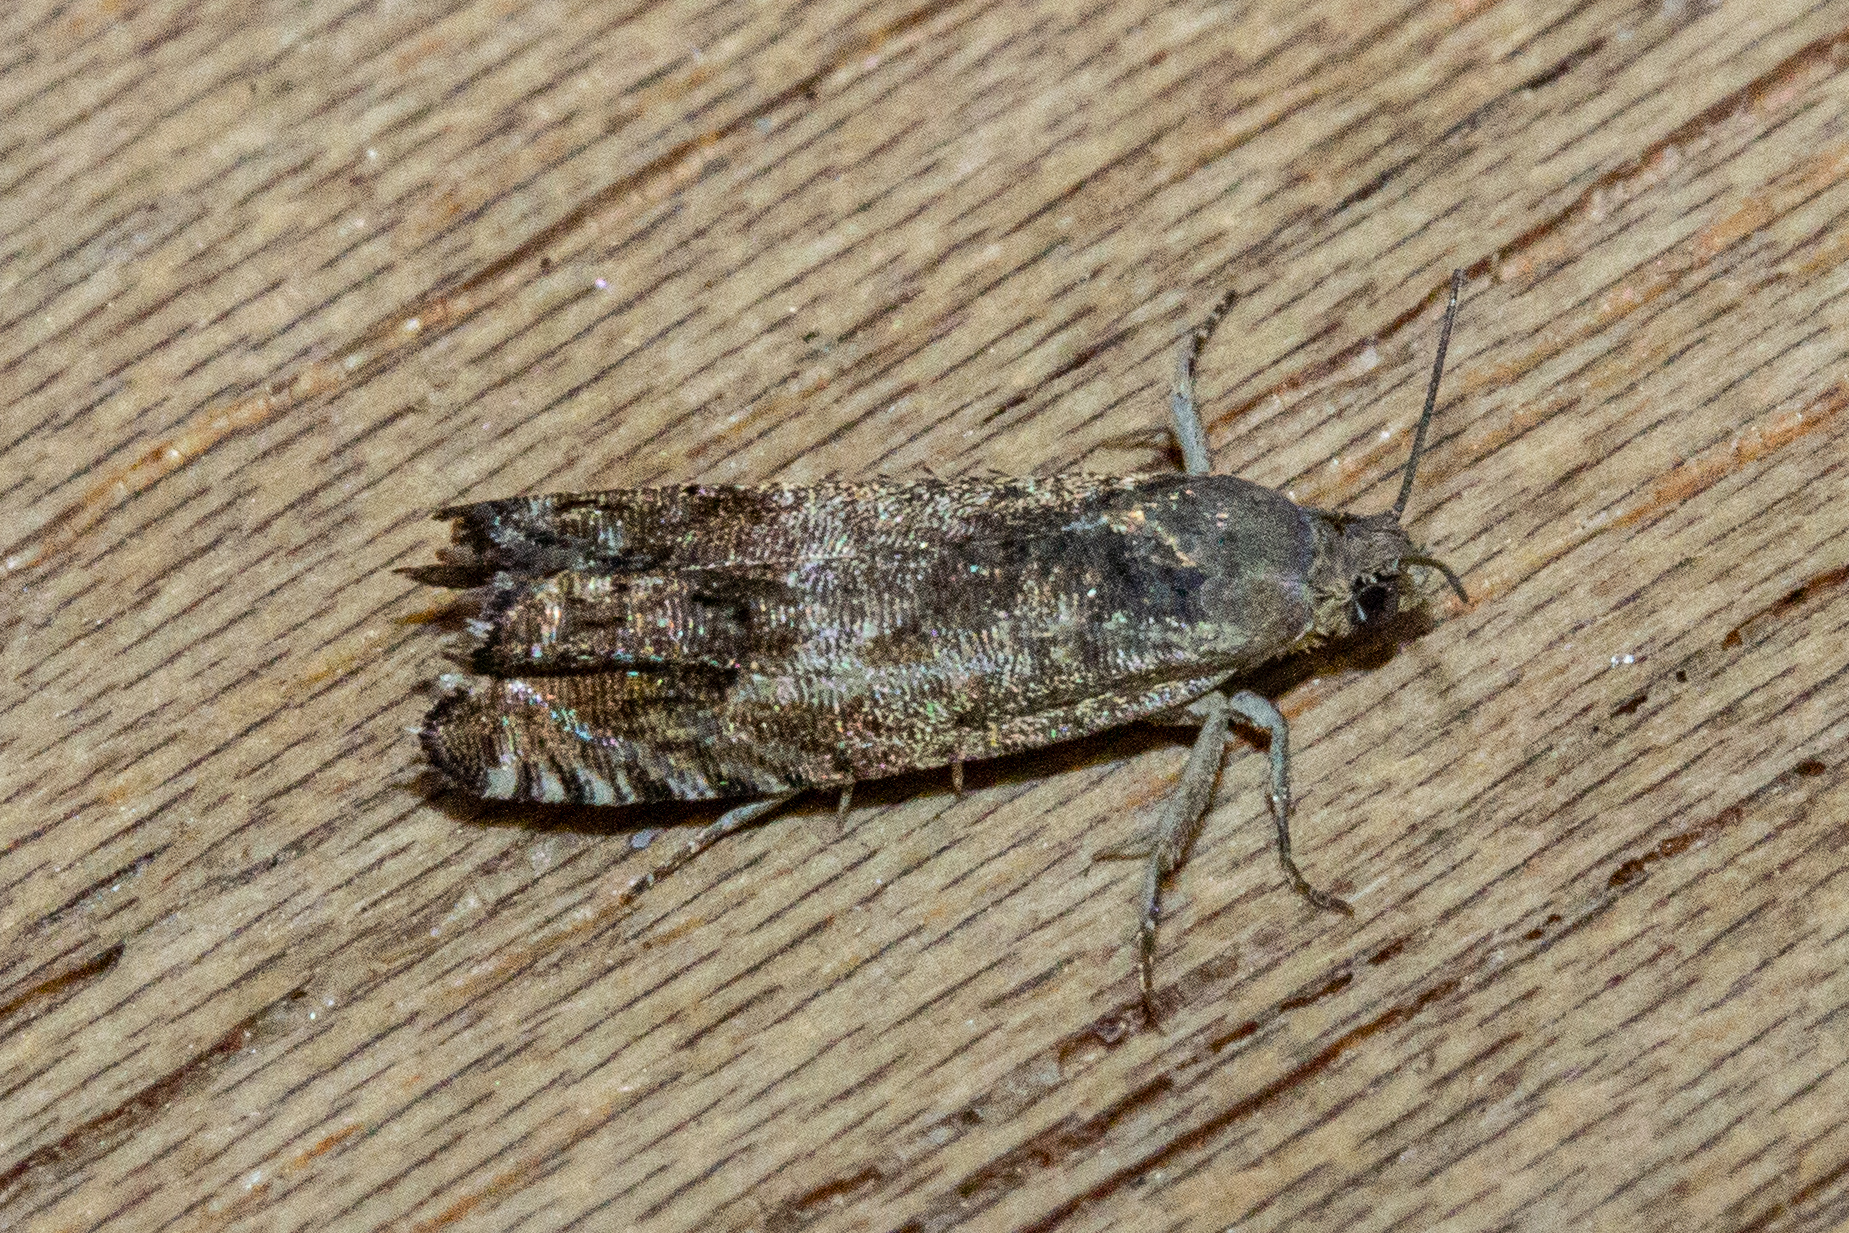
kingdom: Animalia
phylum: Arthropoda
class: Insecta
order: Lepidoptera
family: Tortricidae
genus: Cydia
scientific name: Cydia succedana
